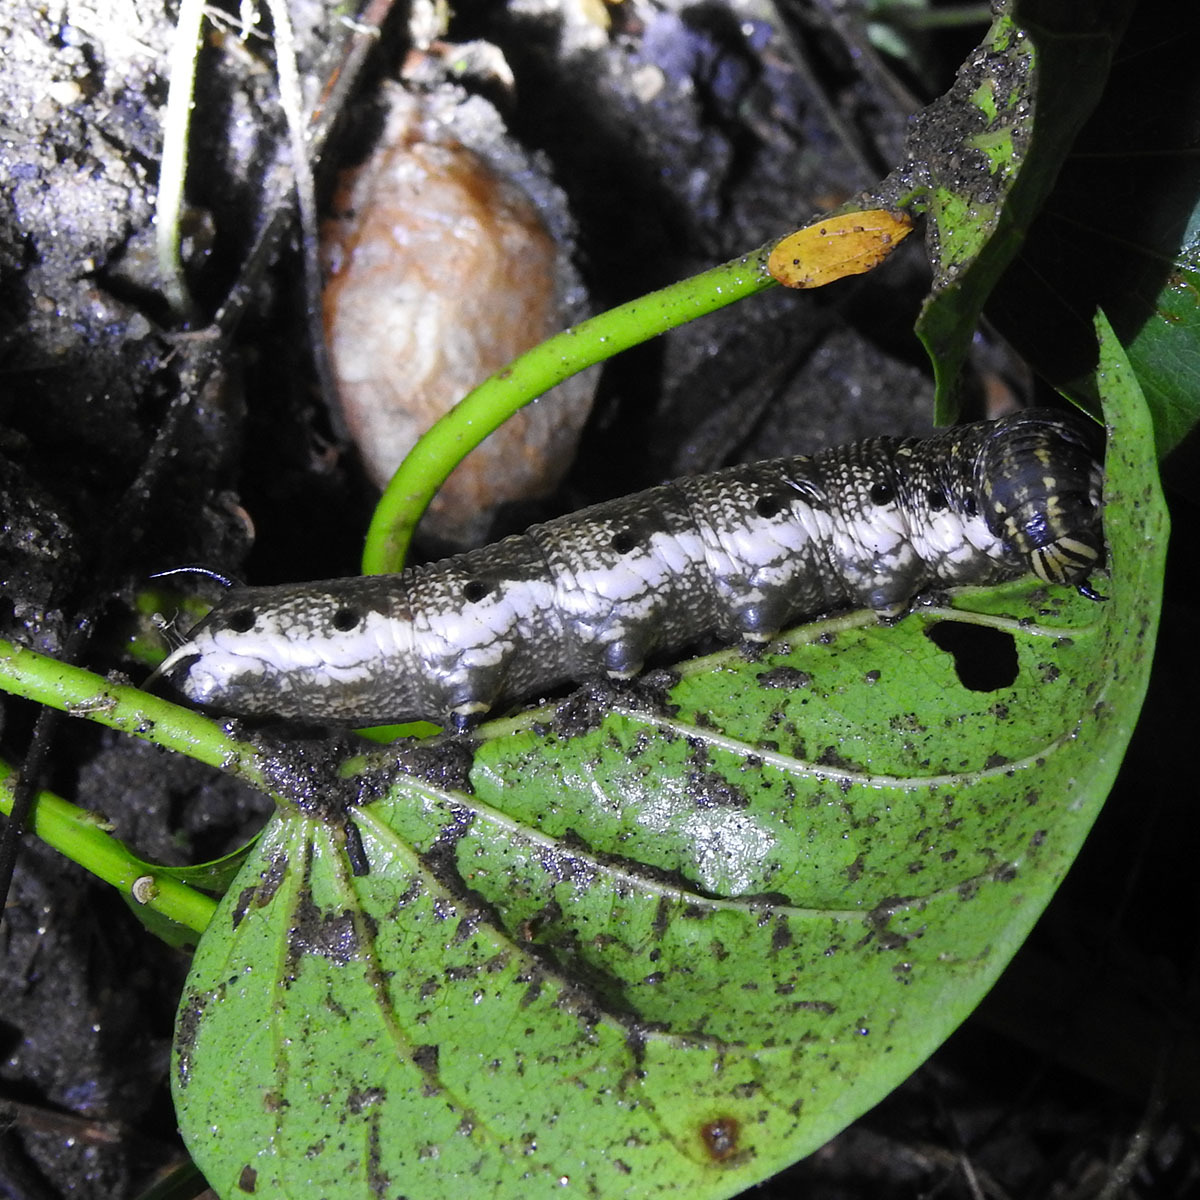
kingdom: Animalia
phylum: Arthropoda
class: Insecta
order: Lepidoptera
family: Sphingidae
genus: Agrius
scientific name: Agrius convolvuli
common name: Convolvulus hawkmoth
